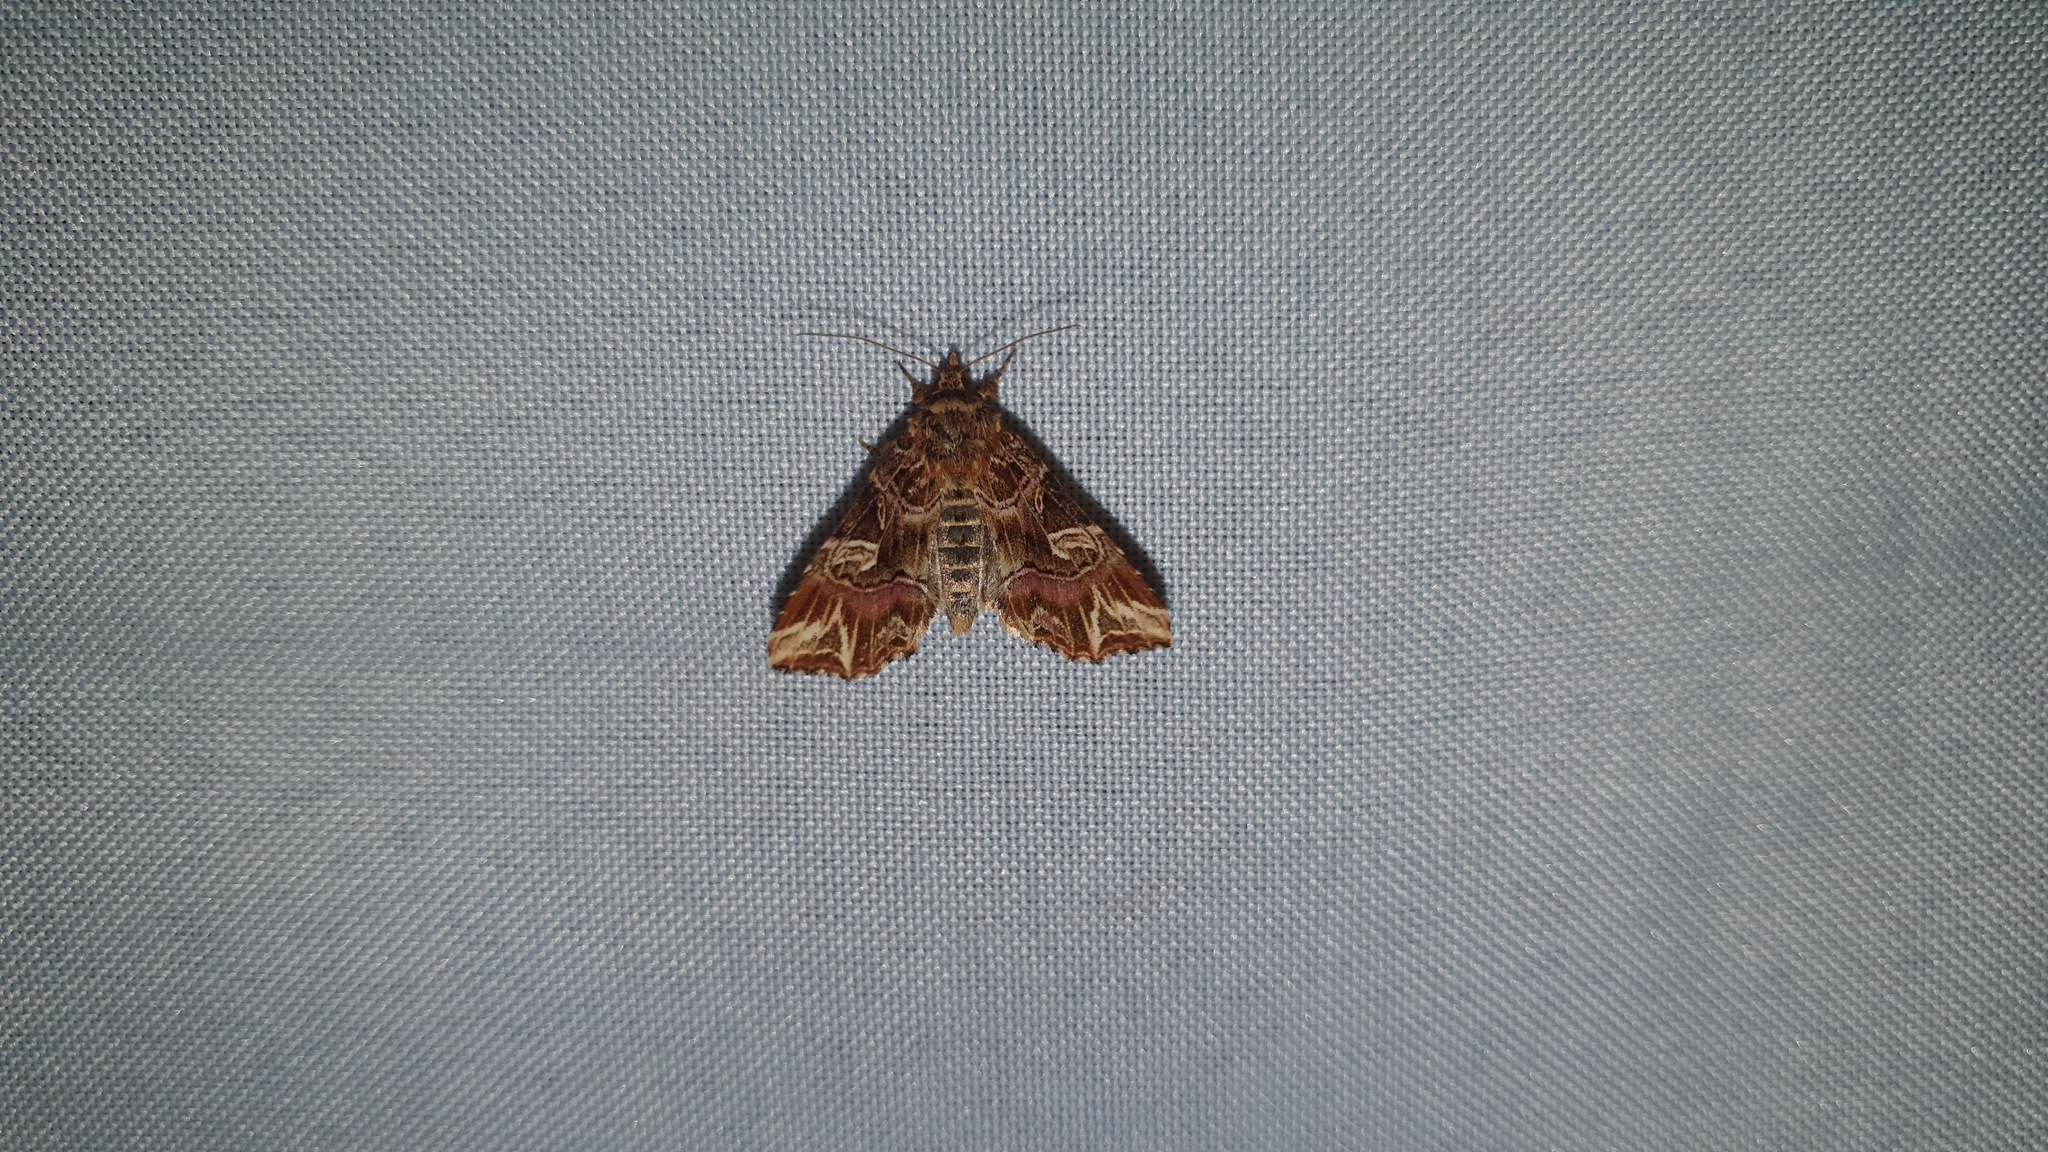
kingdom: Animalia
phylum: Arthropoda
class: Insecta
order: Lepidoptera
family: Noctuidae
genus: Callopistria
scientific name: Callopistria juventina
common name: Latin
